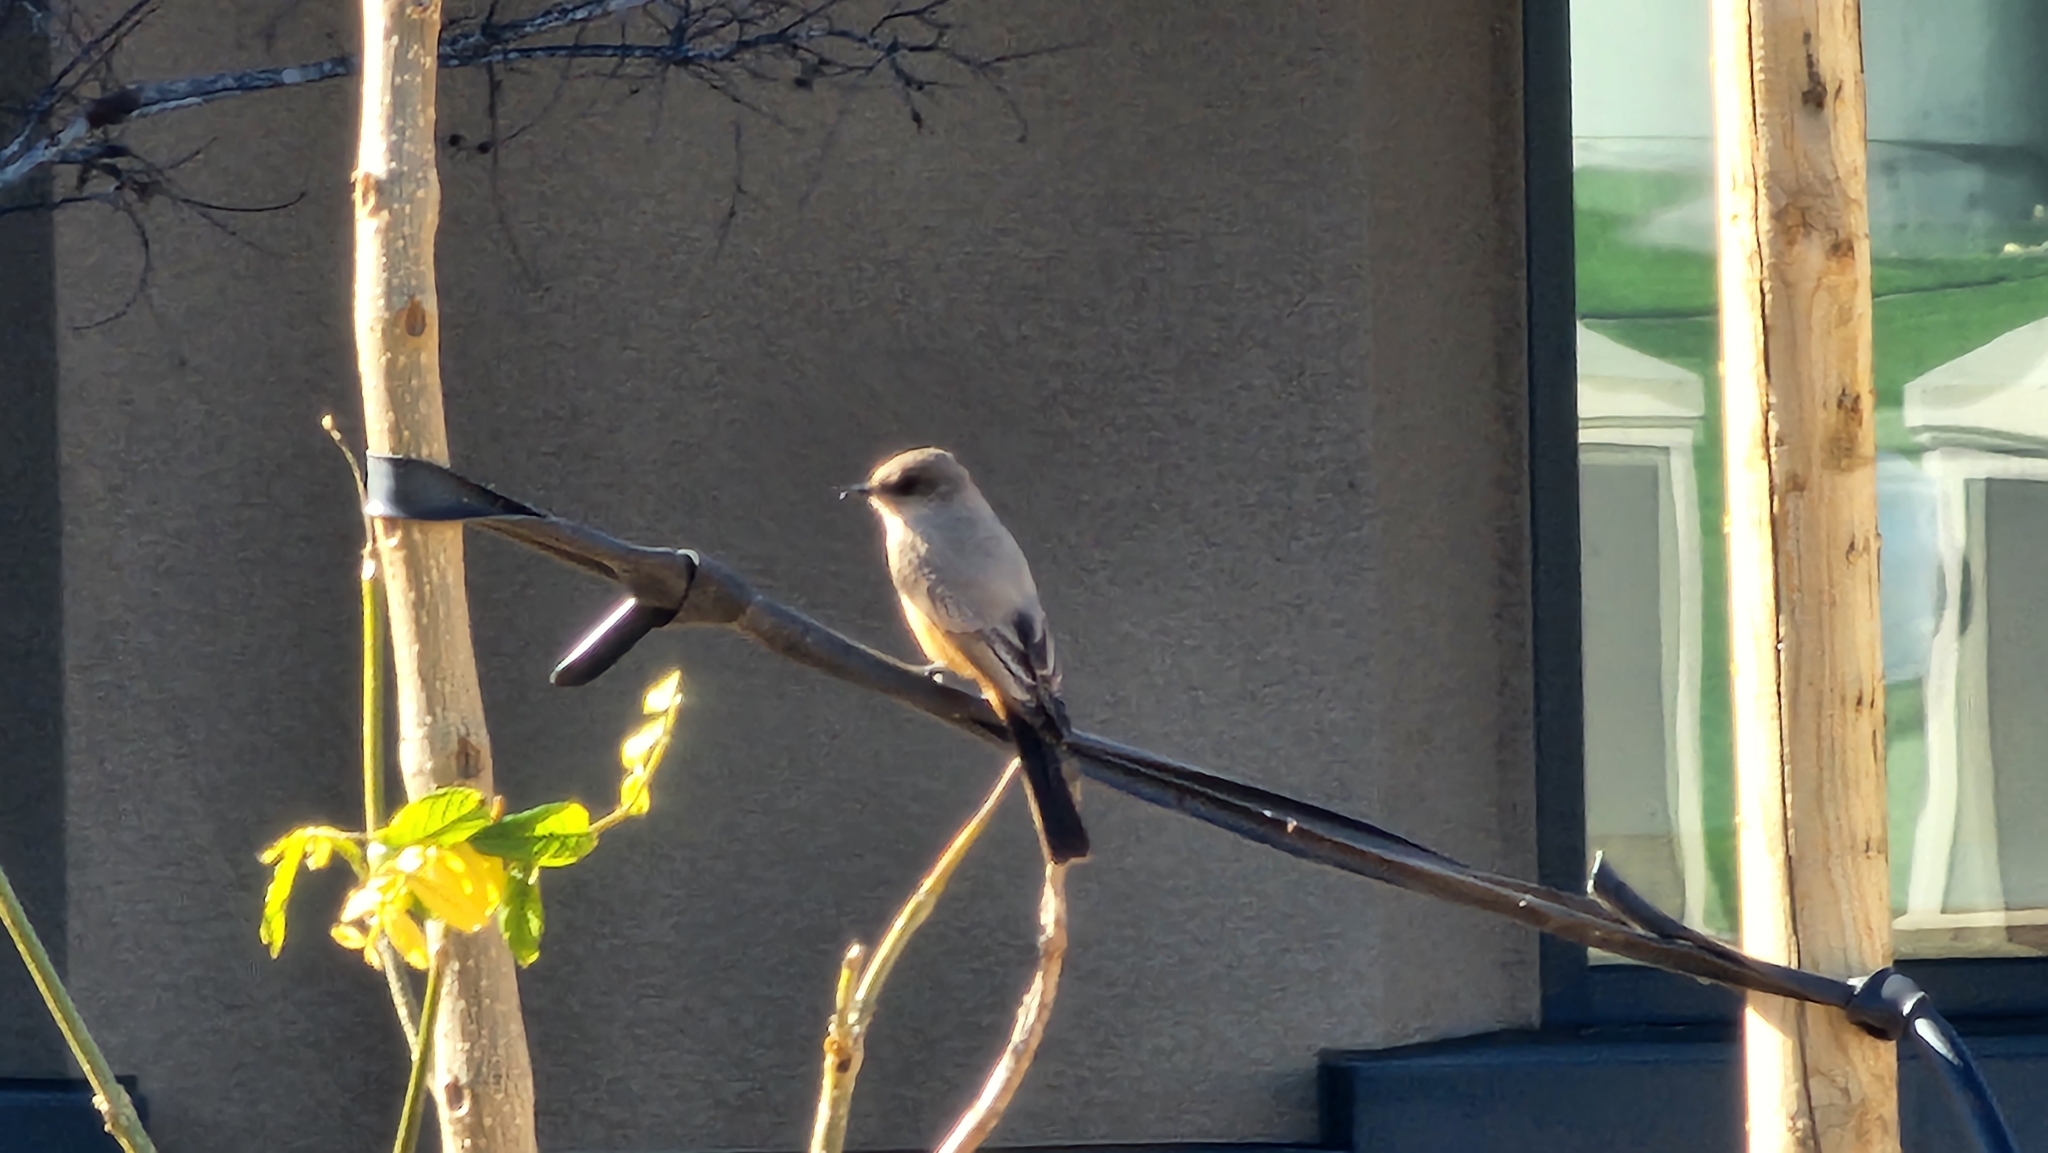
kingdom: Animalia
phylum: Chordata
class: Aves
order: Passeriformes
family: Tyrannidae
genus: Sayornis
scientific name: Sayornis saya
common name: Say's phoebe
